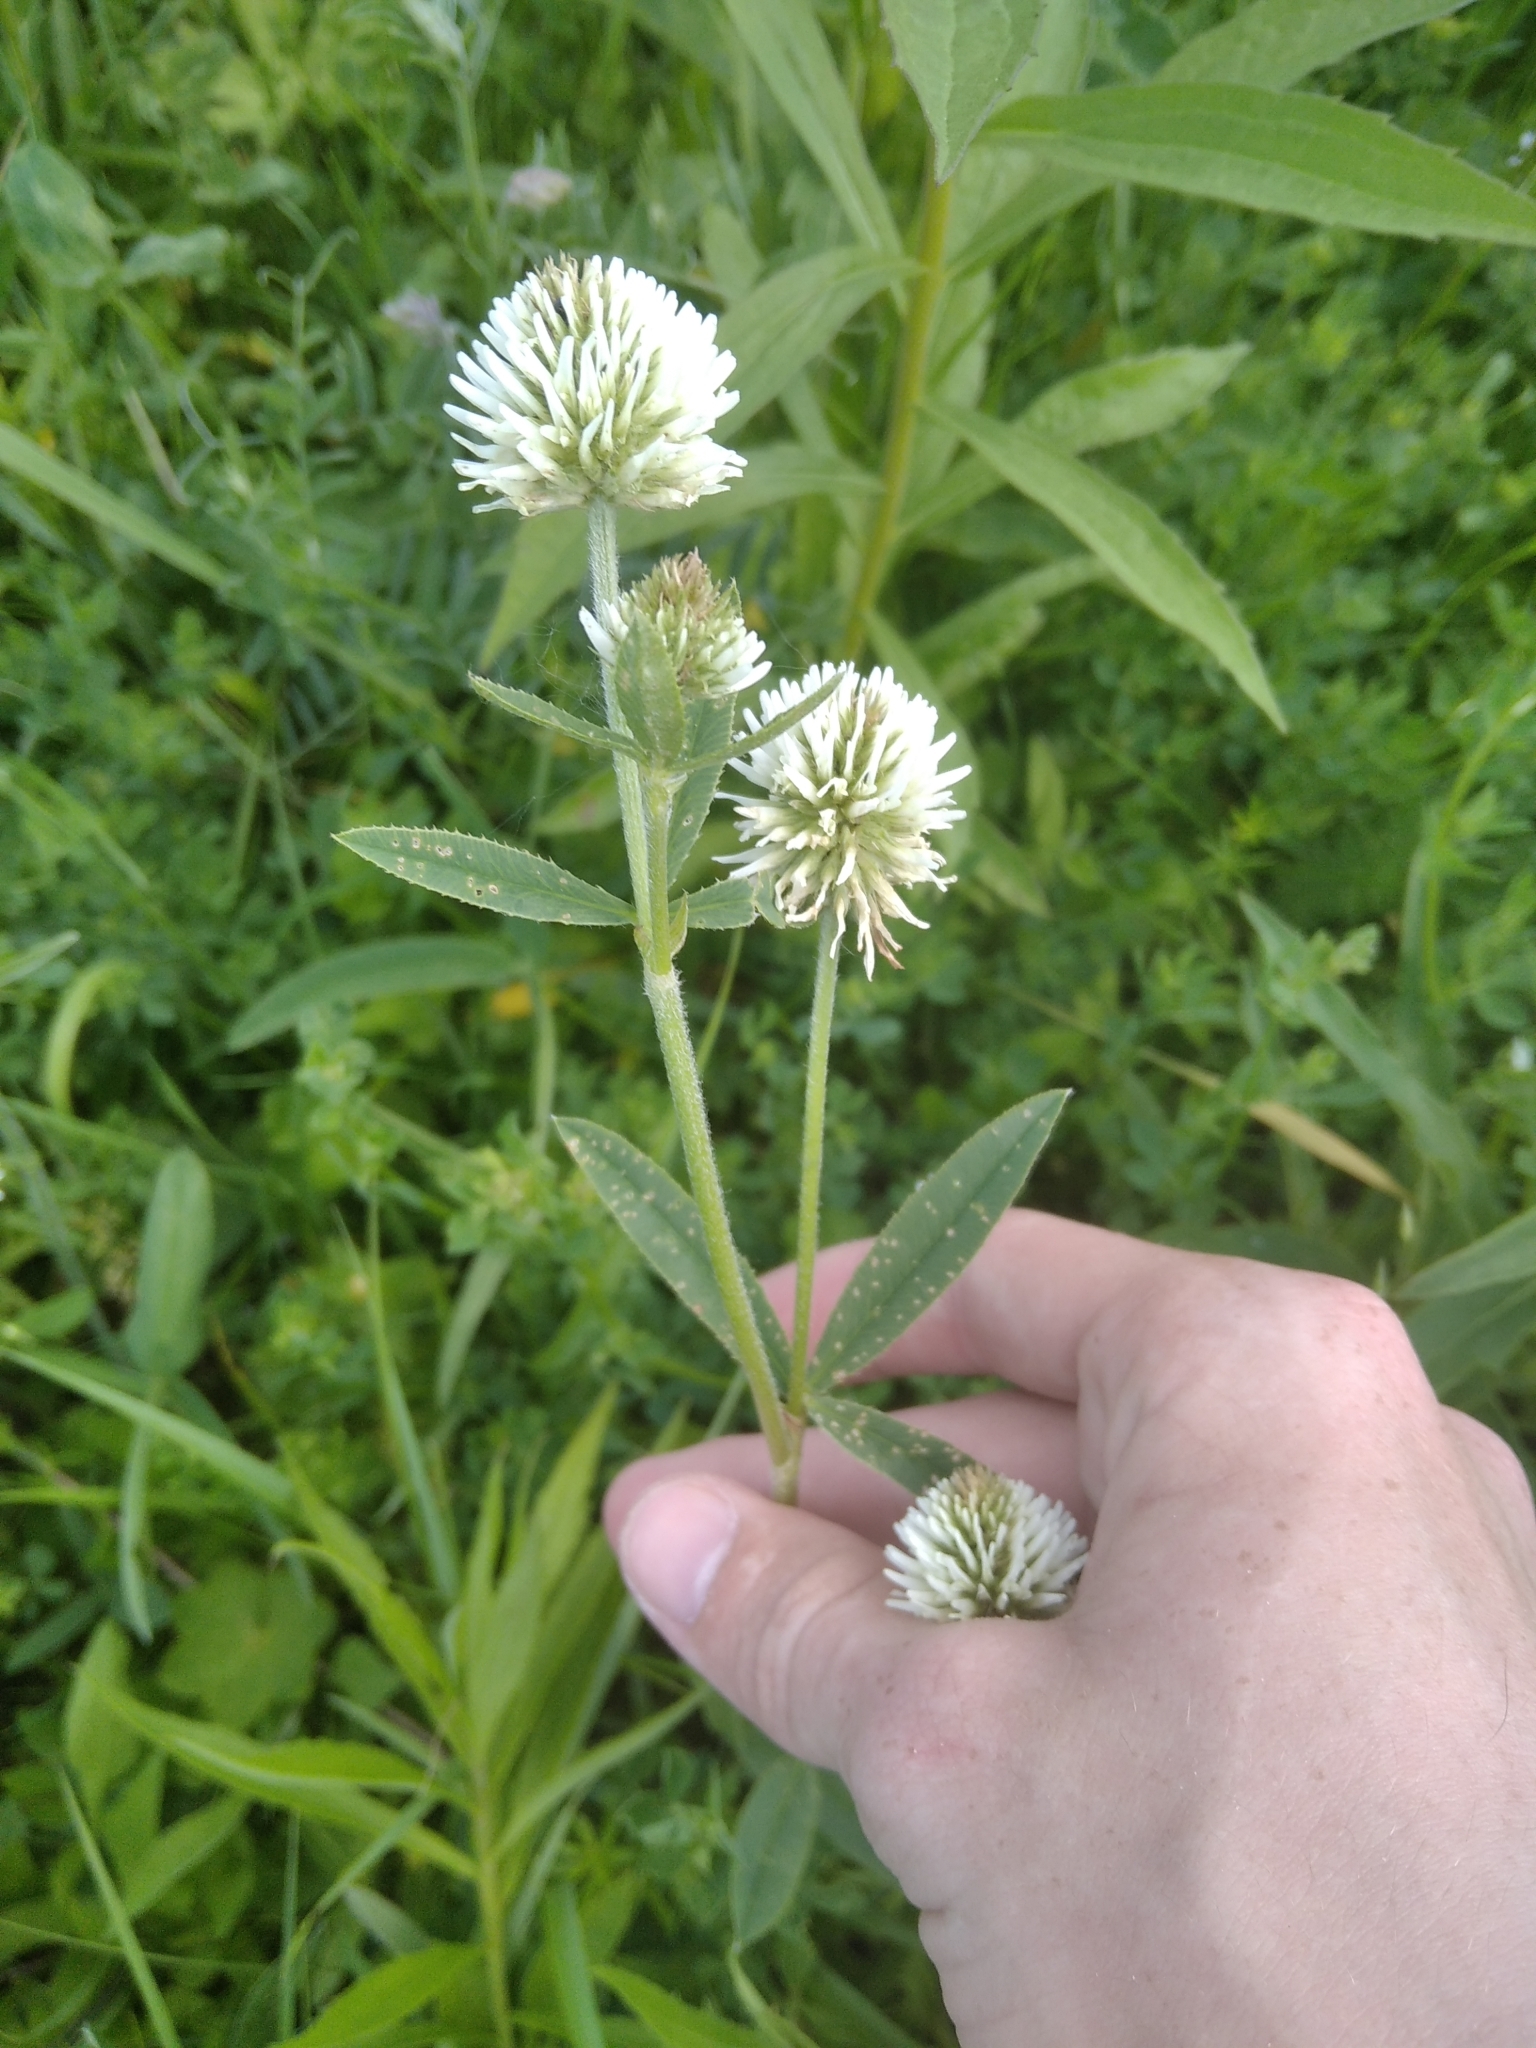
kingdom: Plantae
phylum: Tracheophyta
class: Magnoliopsida
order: Fabales
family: Fabaceae
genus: Trifolium
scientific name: Trifolium montanum
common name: Mountain clover
